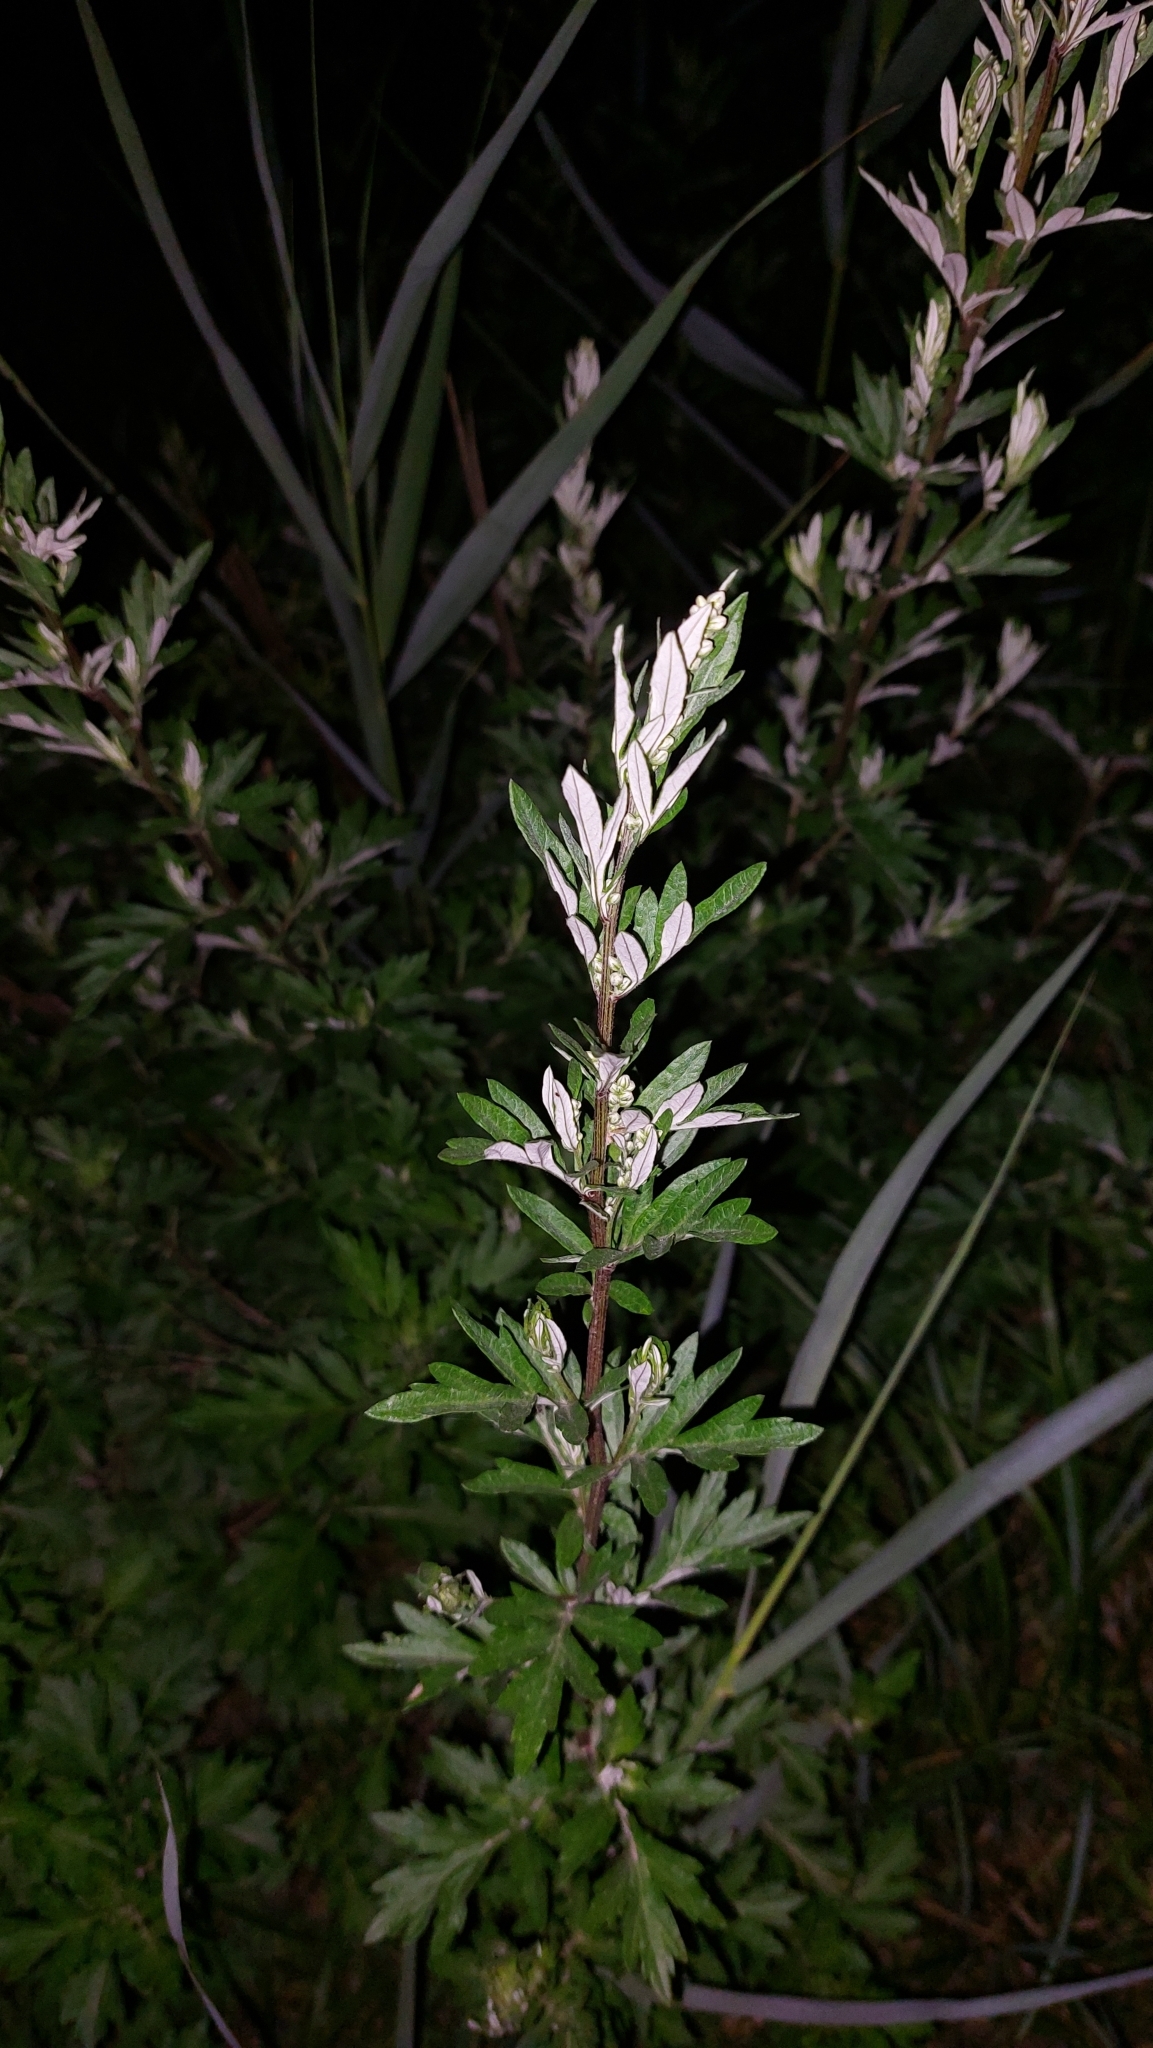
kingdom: Plantae
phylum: Tracheophyta
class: Magnoliopsida
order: Asterales
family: Asteraceae
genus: Artemisia
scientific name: Artemisia vulgaris
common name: Mugwort
